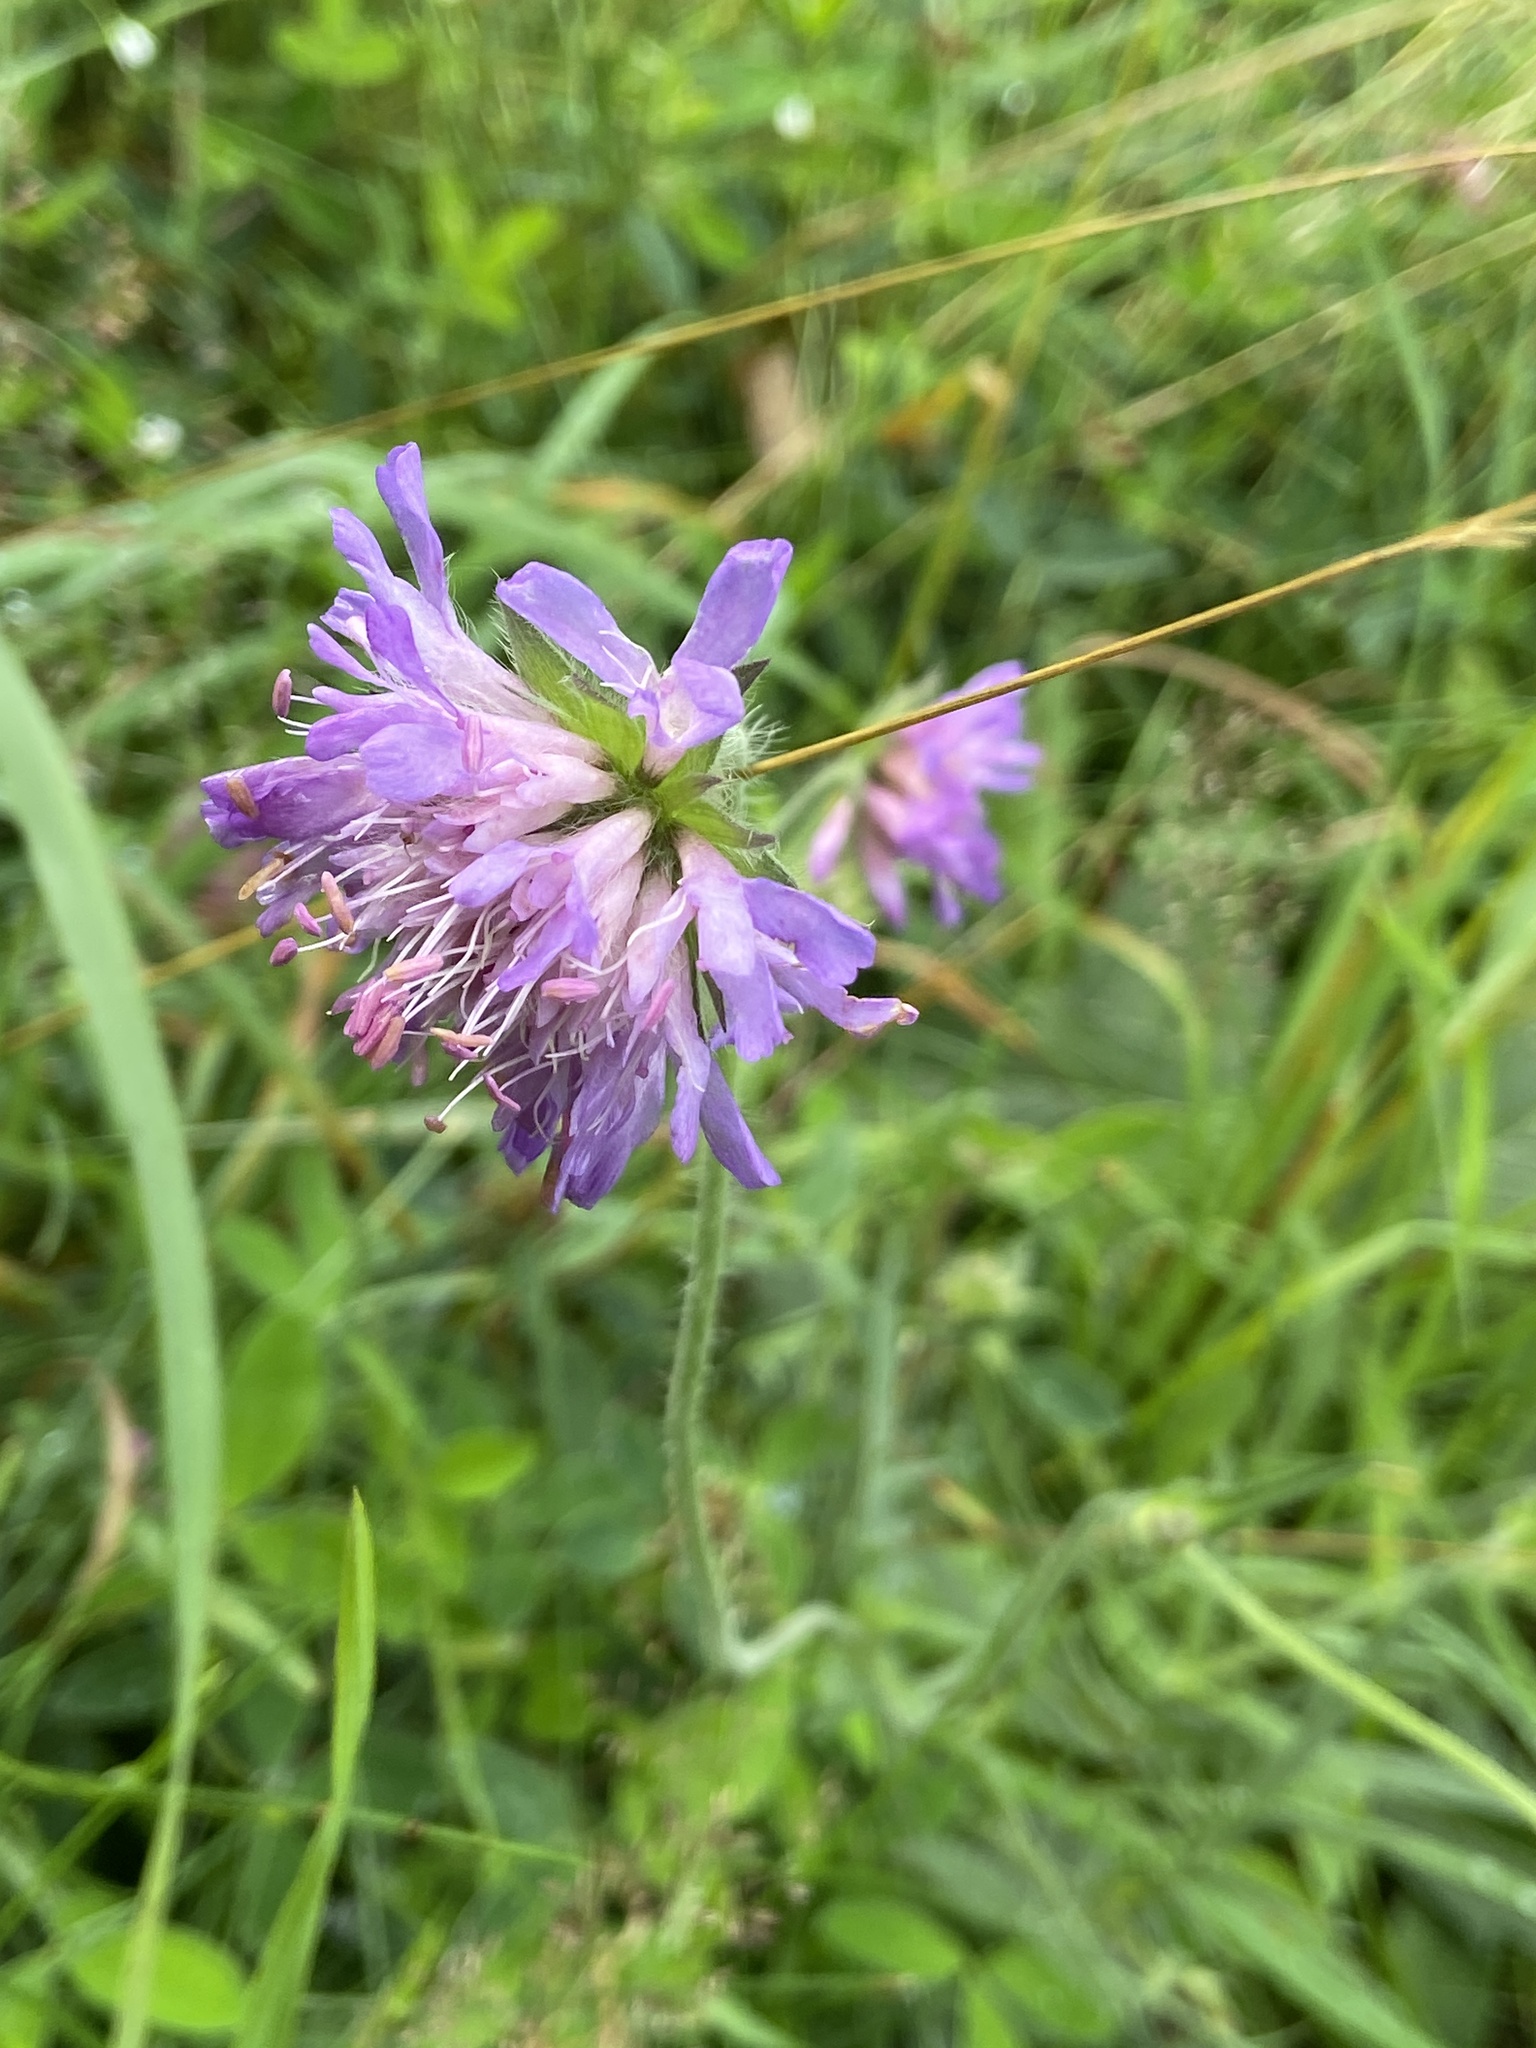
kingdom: Plantae
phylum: Tracheophyta
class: Magnoliopsida
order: Dipsacales
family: Caprifoliaceae
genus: Knautia
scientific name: Knautia arvensis
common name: Field scabiosa
